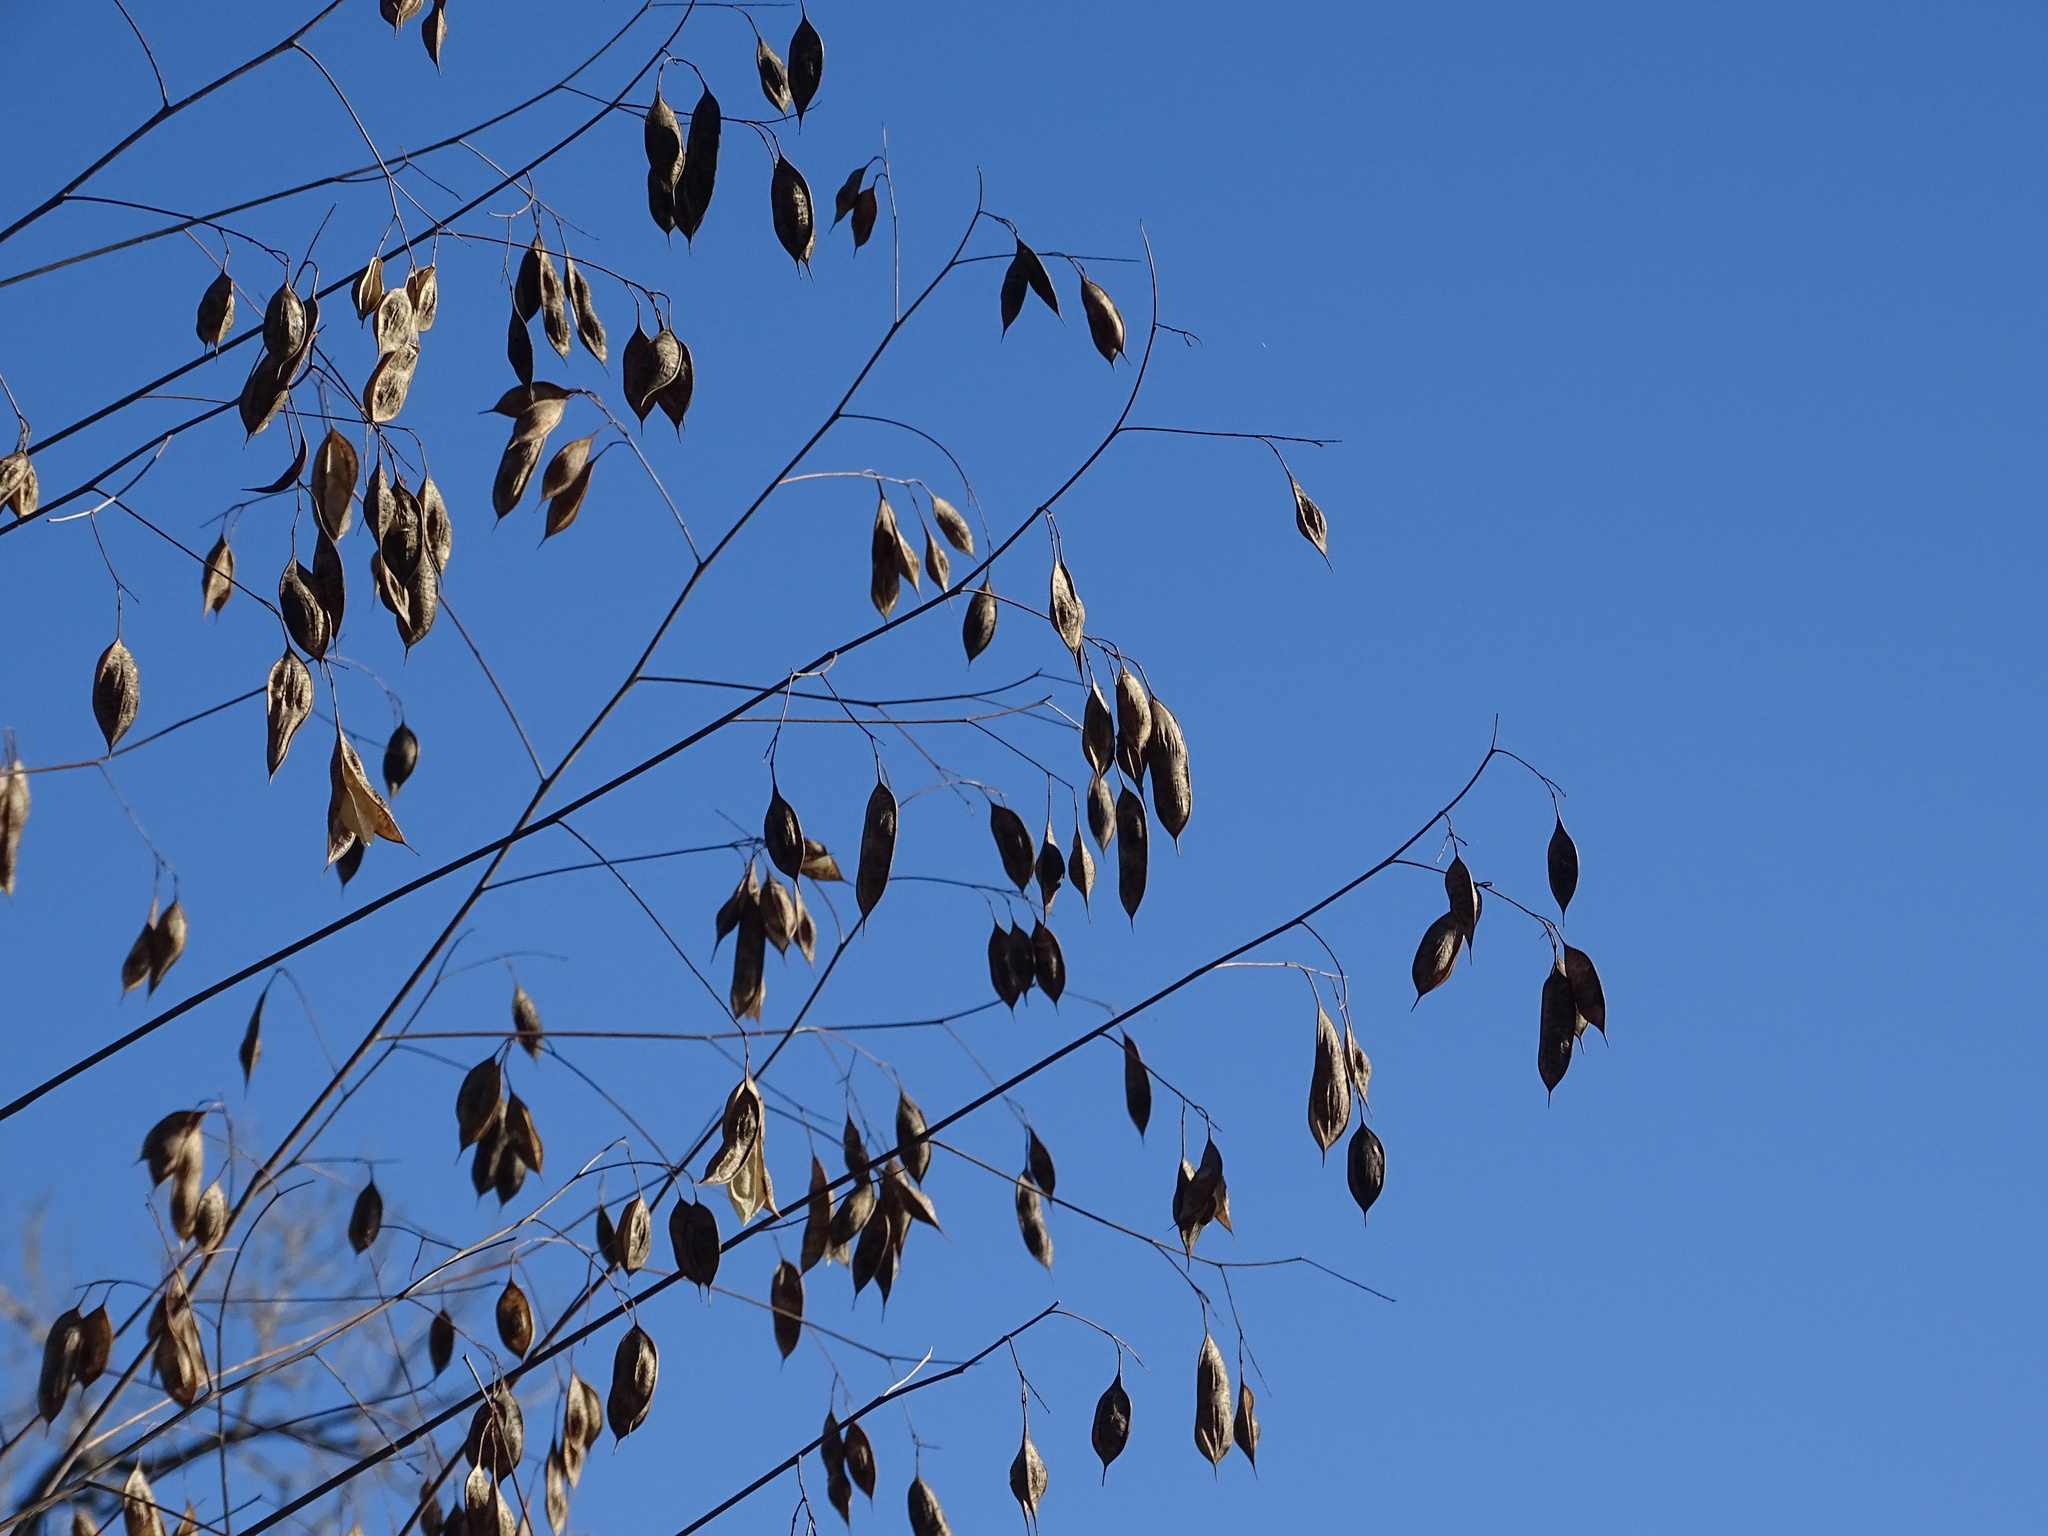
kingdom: Plantae
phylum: Tracheophyta
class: Magnoliopsida
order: Fabales
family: Fabaceae
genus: Sesbania
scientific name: Sesbania vesicaria
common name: Bagpod
